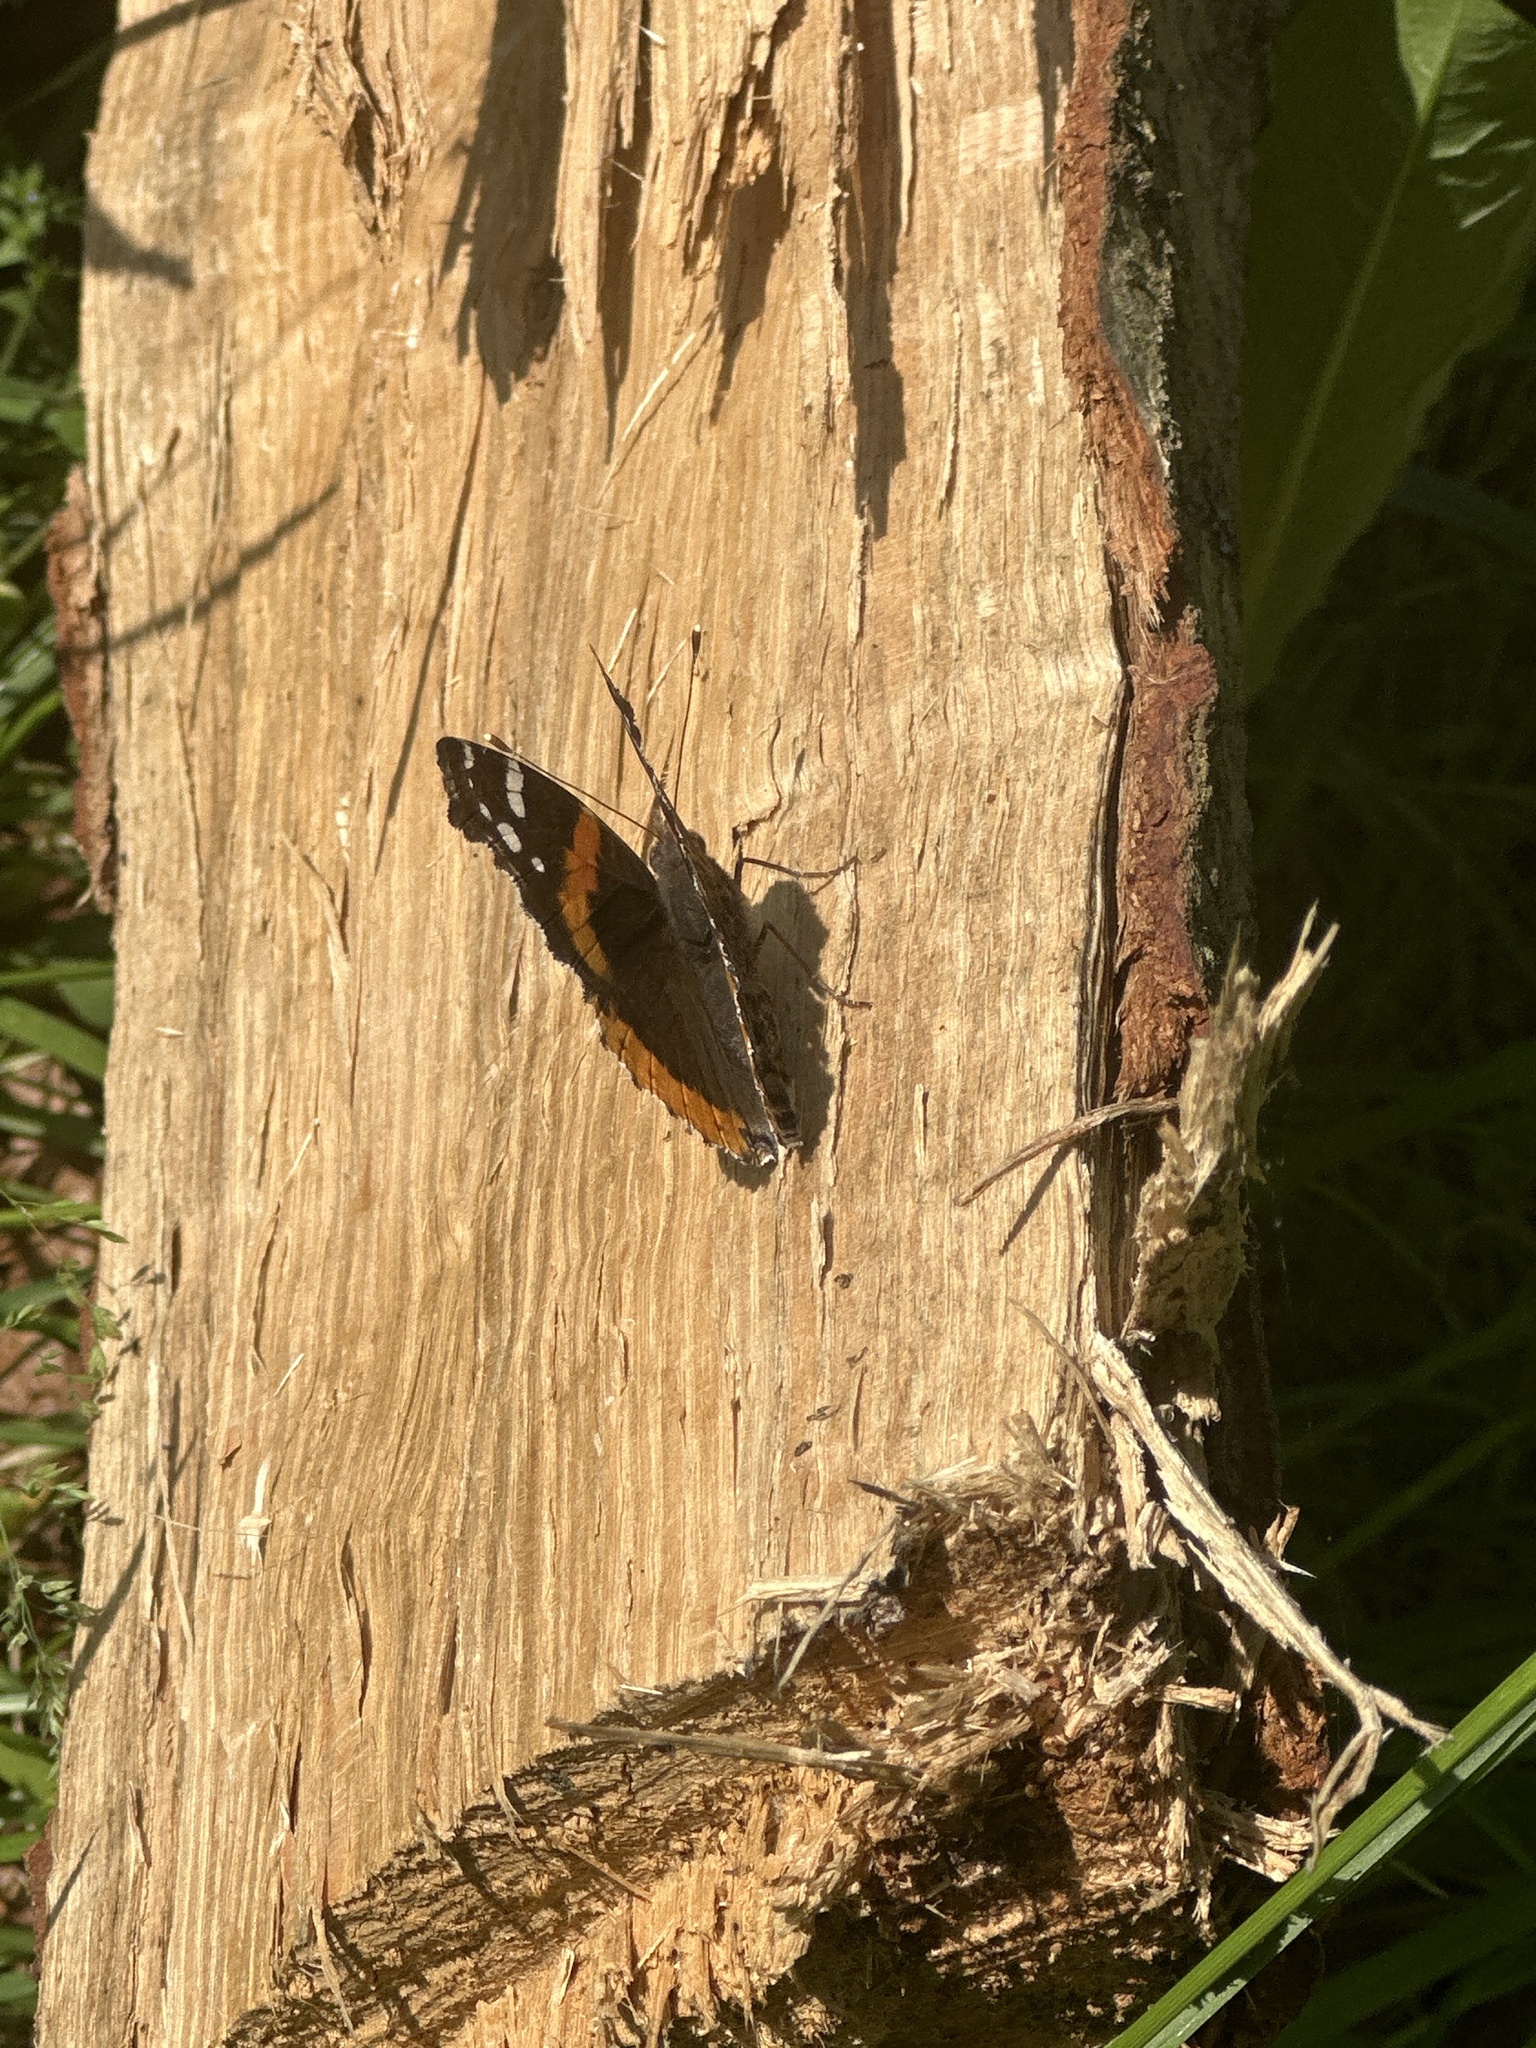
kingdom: Animalia
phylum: Arthropoda
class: Insecta
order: Lepidoptera
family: Nymphalidae
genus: Vanessa
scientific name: Vanessa atalanta
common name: Red admiral
